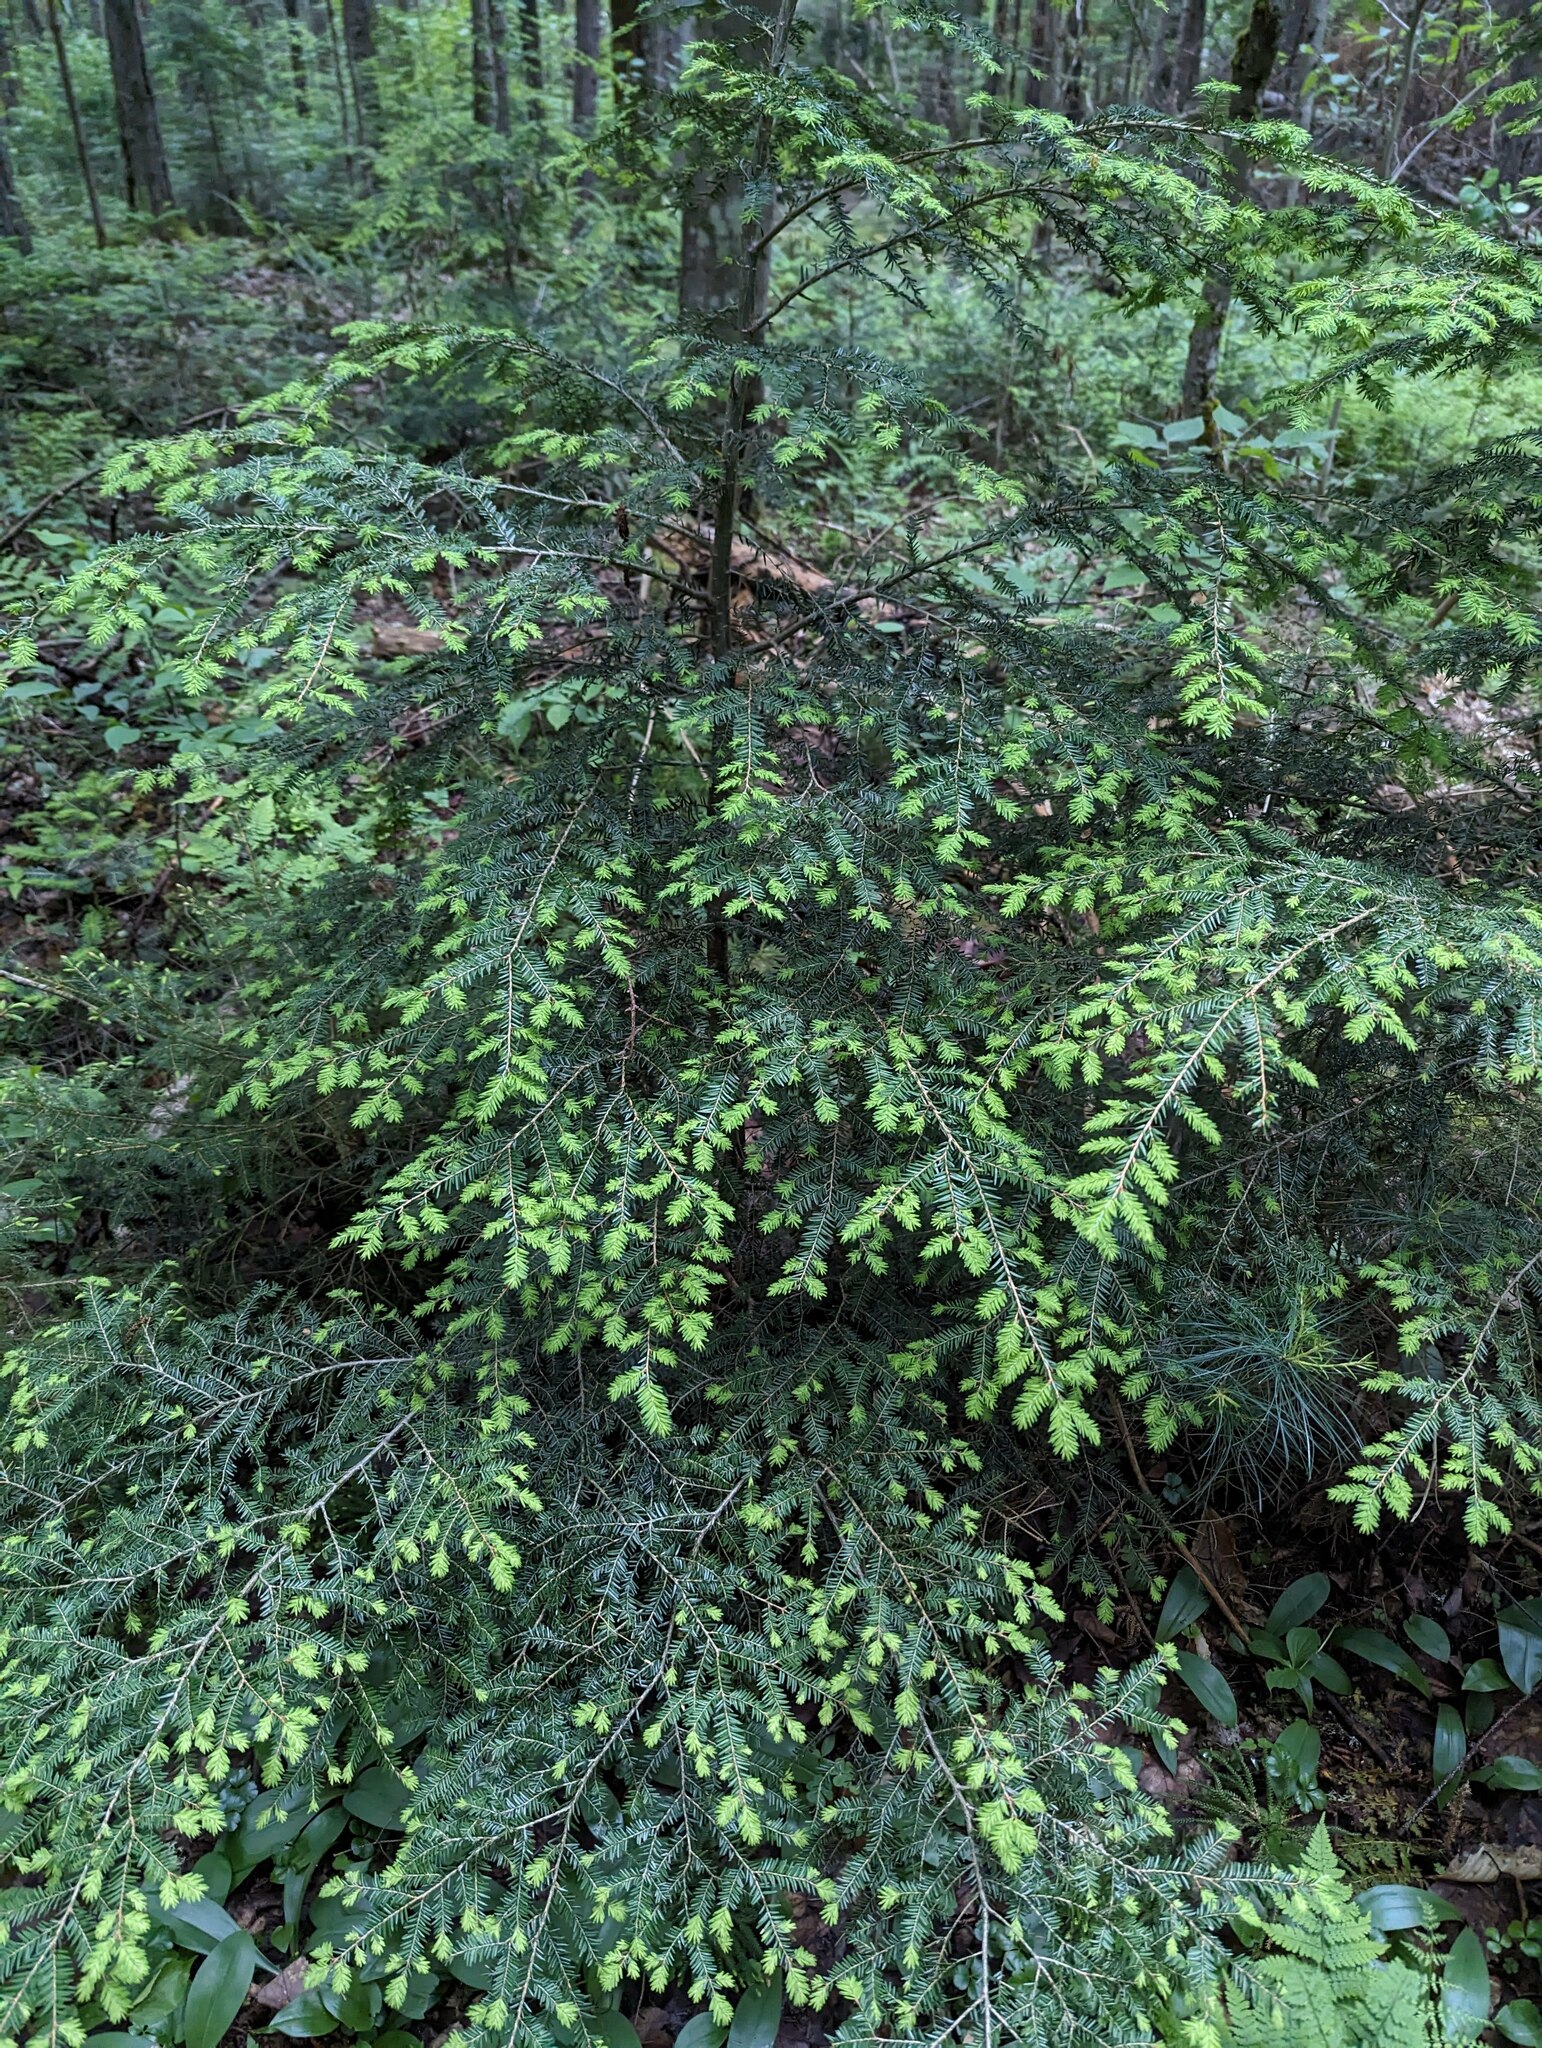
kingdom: Plantae
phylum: Tracheophyta
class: Pinopsida
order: Pinales
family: Pinaceae
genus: Tsuga
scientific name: Tsuga canadensis
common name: Eastern hemlock
